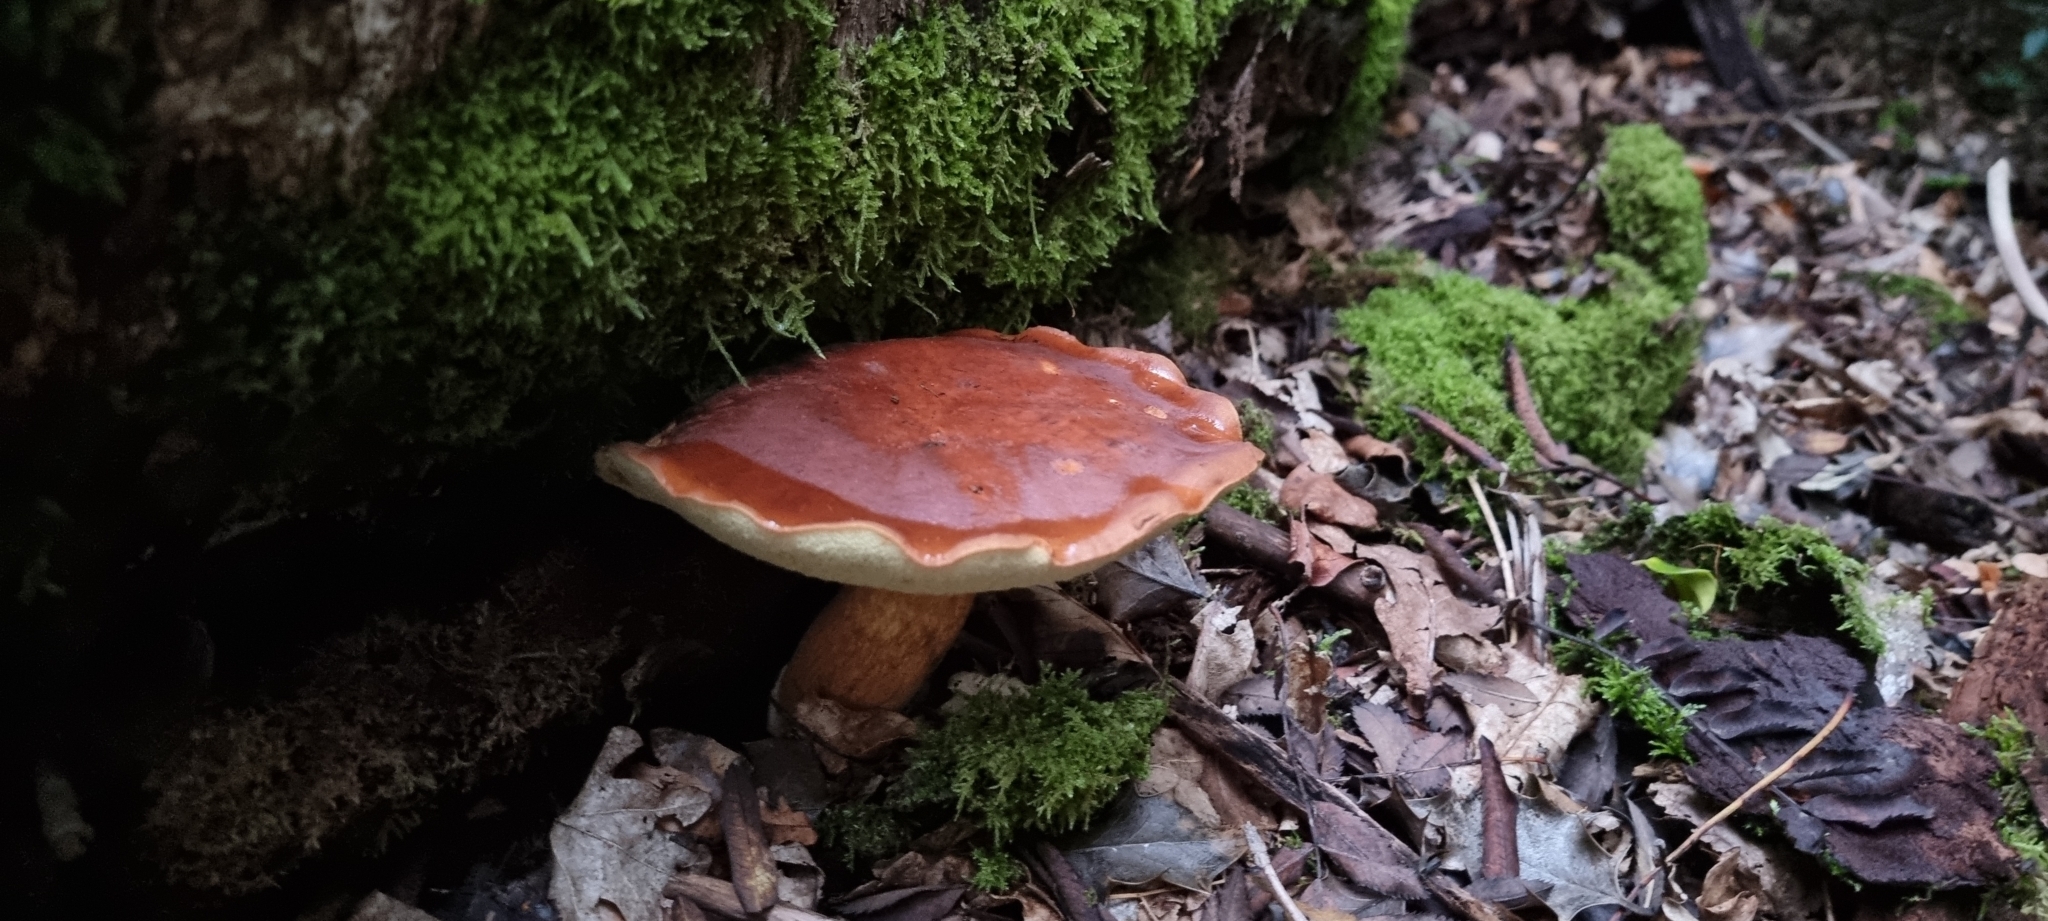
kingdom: Fungi
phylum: Basidiomycota
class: Agaricomycetes
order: Boletales
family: Boletaceae
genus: Imleria
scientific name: Imleria badia
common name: Bay bolete
